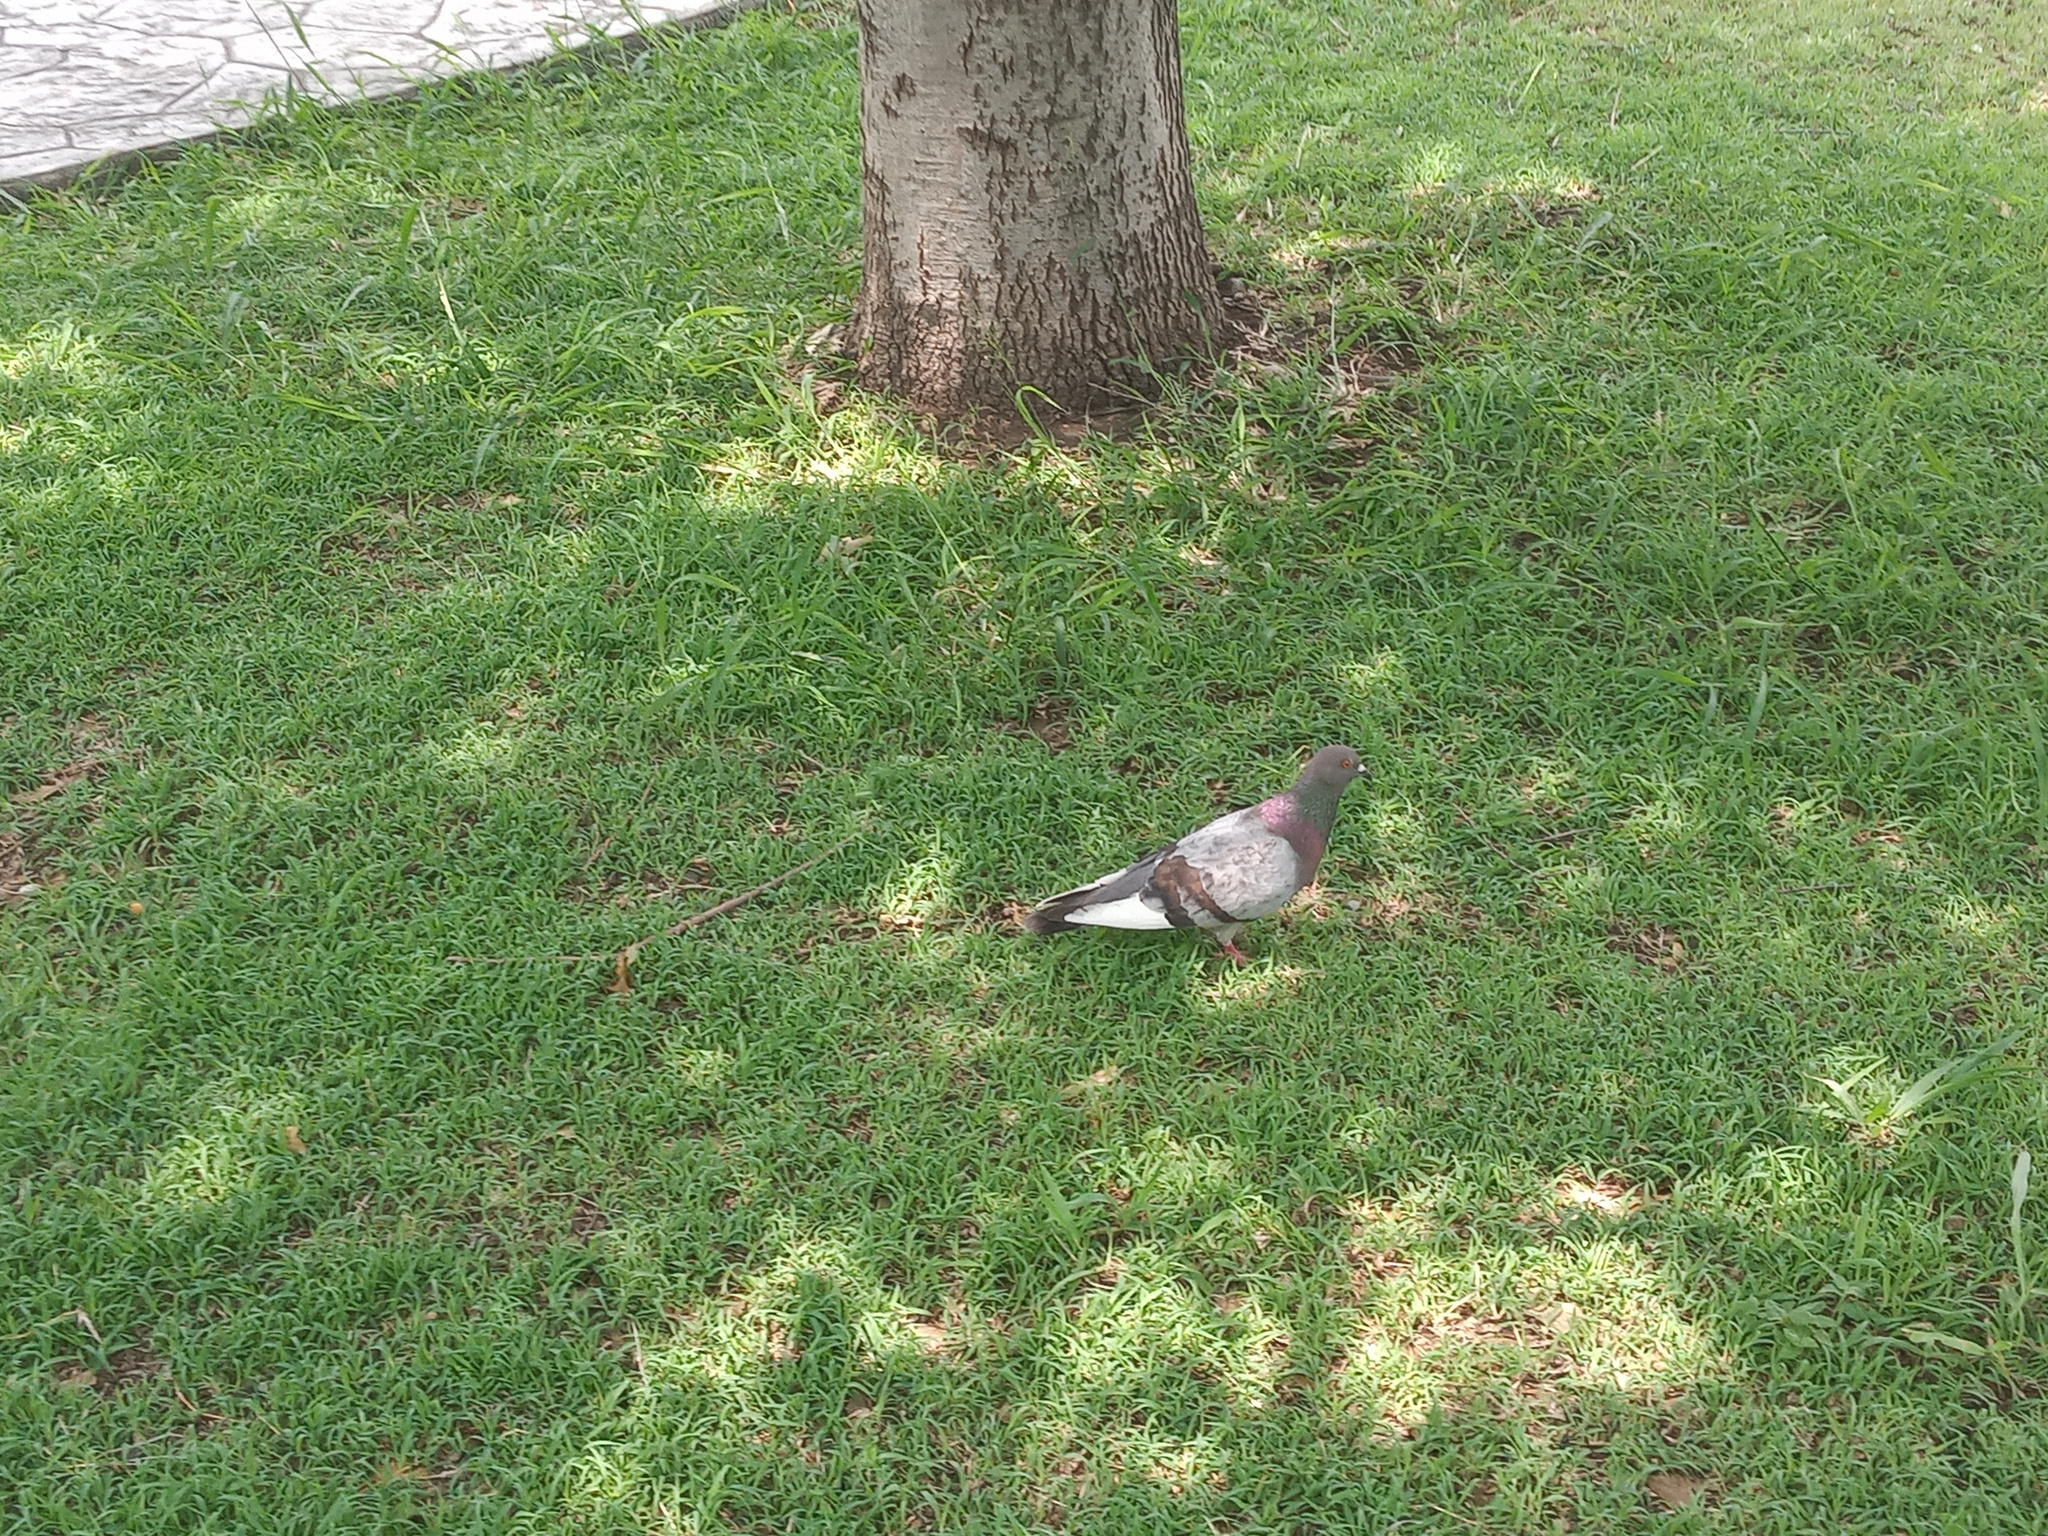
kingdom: Animalia
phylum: Chordata
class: Aves
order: Columbiformes
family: Columbidae
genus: Columba
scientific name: Columba livia
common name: Rock pigeon
